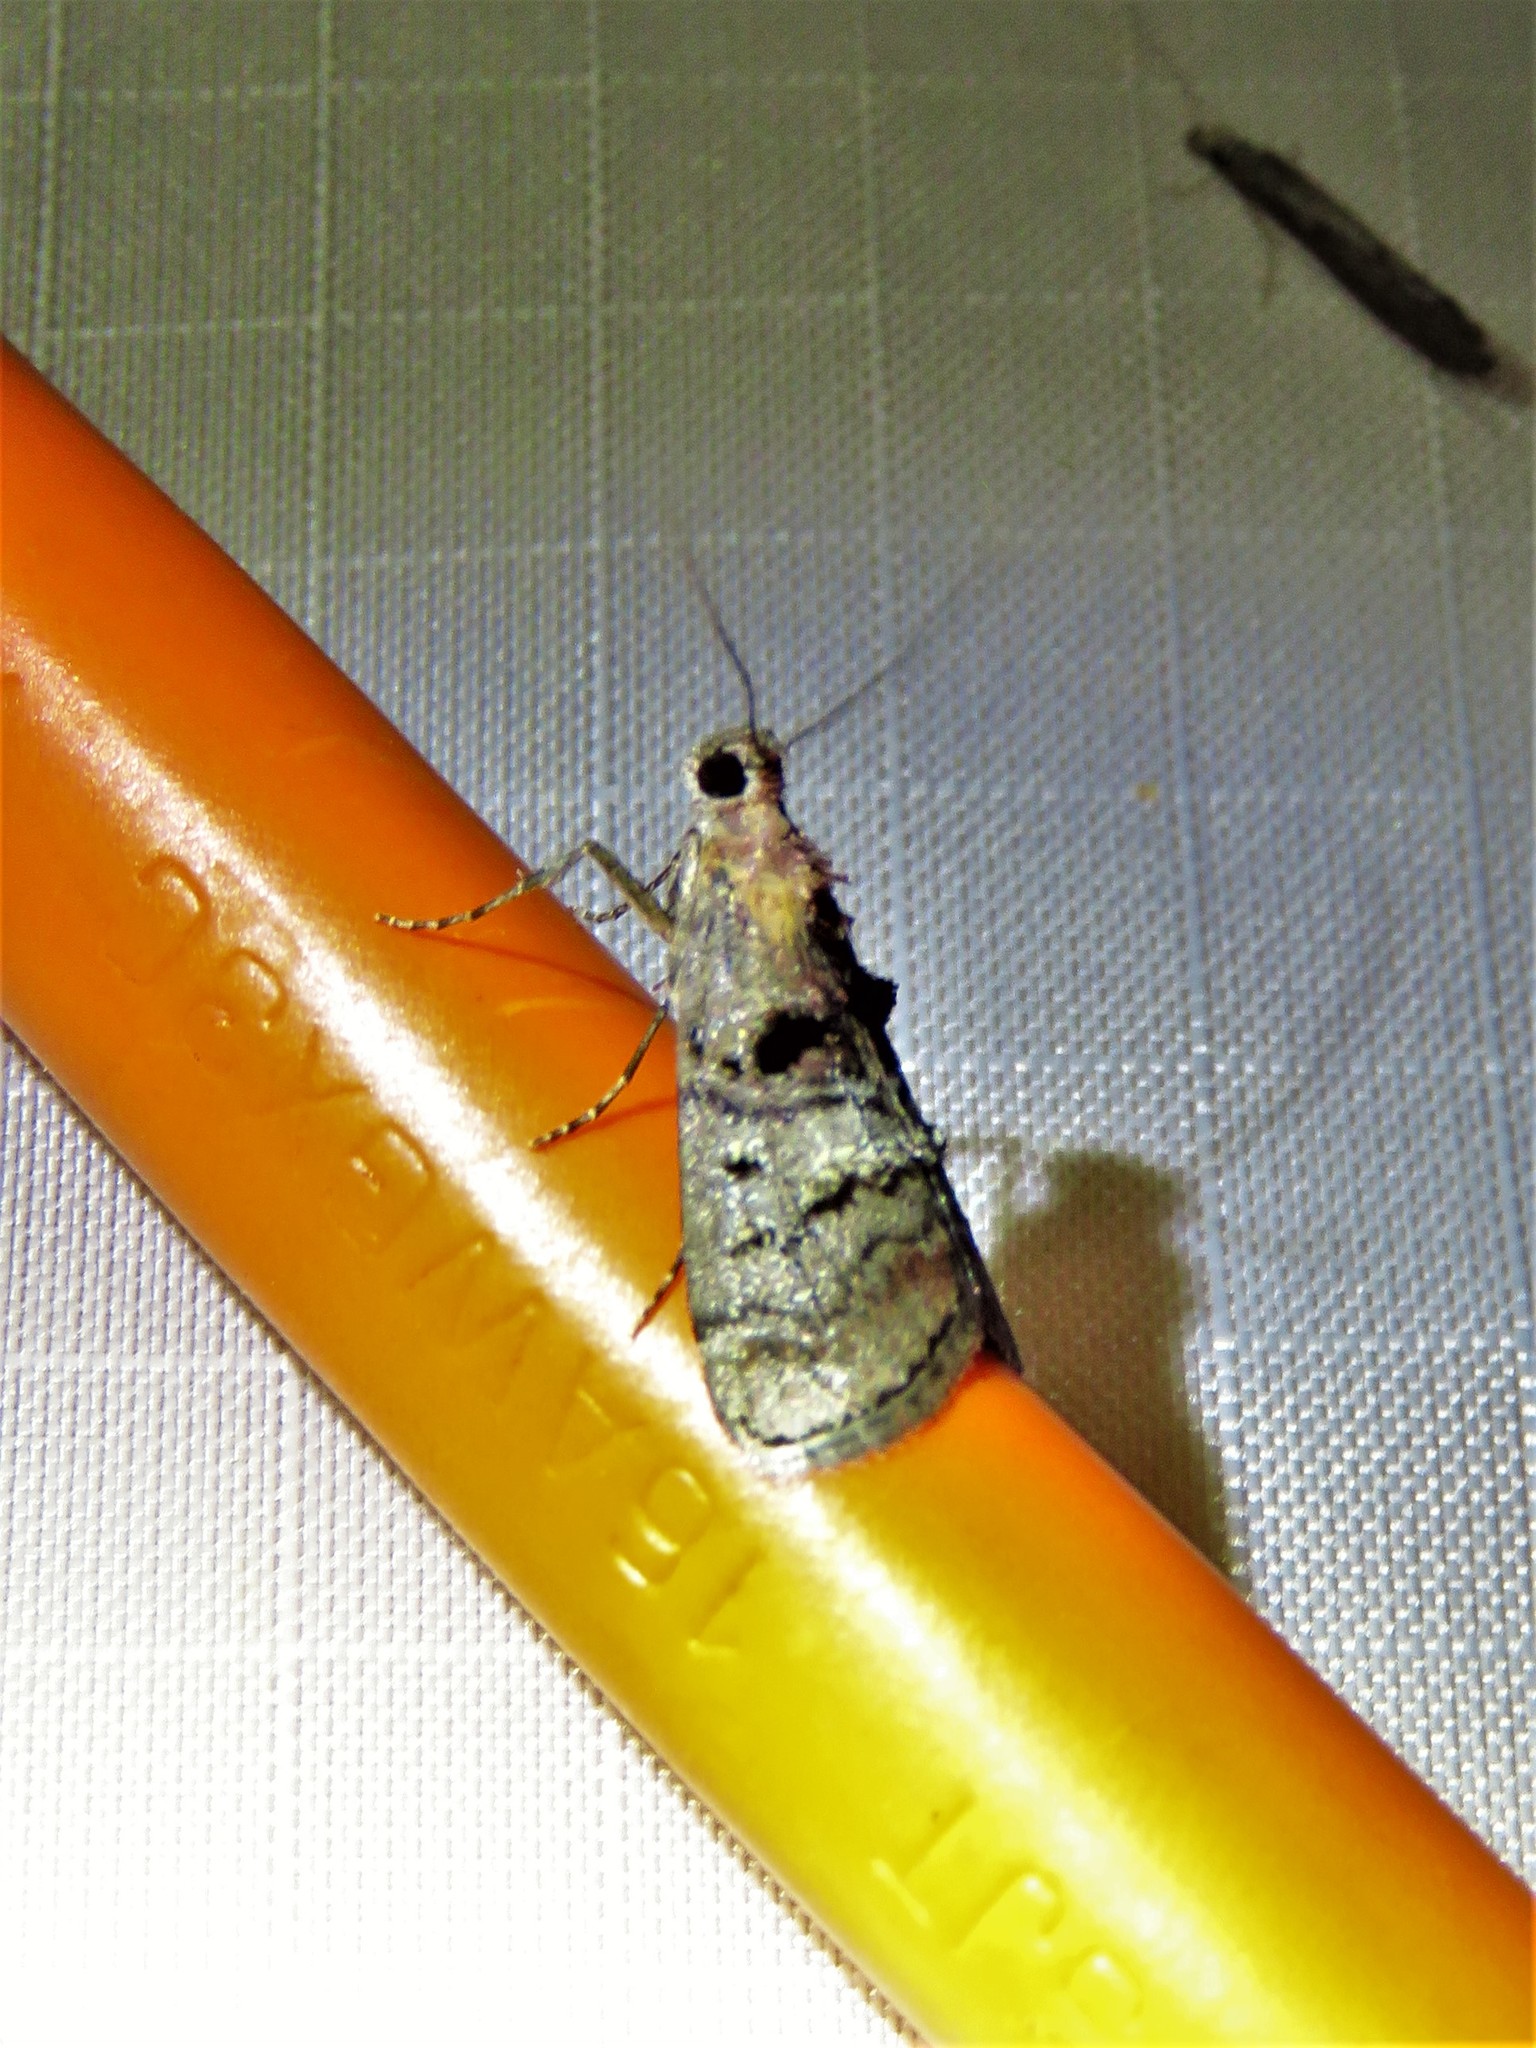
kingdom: Animalia
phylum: Arthropoda
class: Insecta
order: Lepidoptera
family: Pyralidae
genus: Pococera
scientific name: Pococera asperatella
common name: Maple webworm moth
